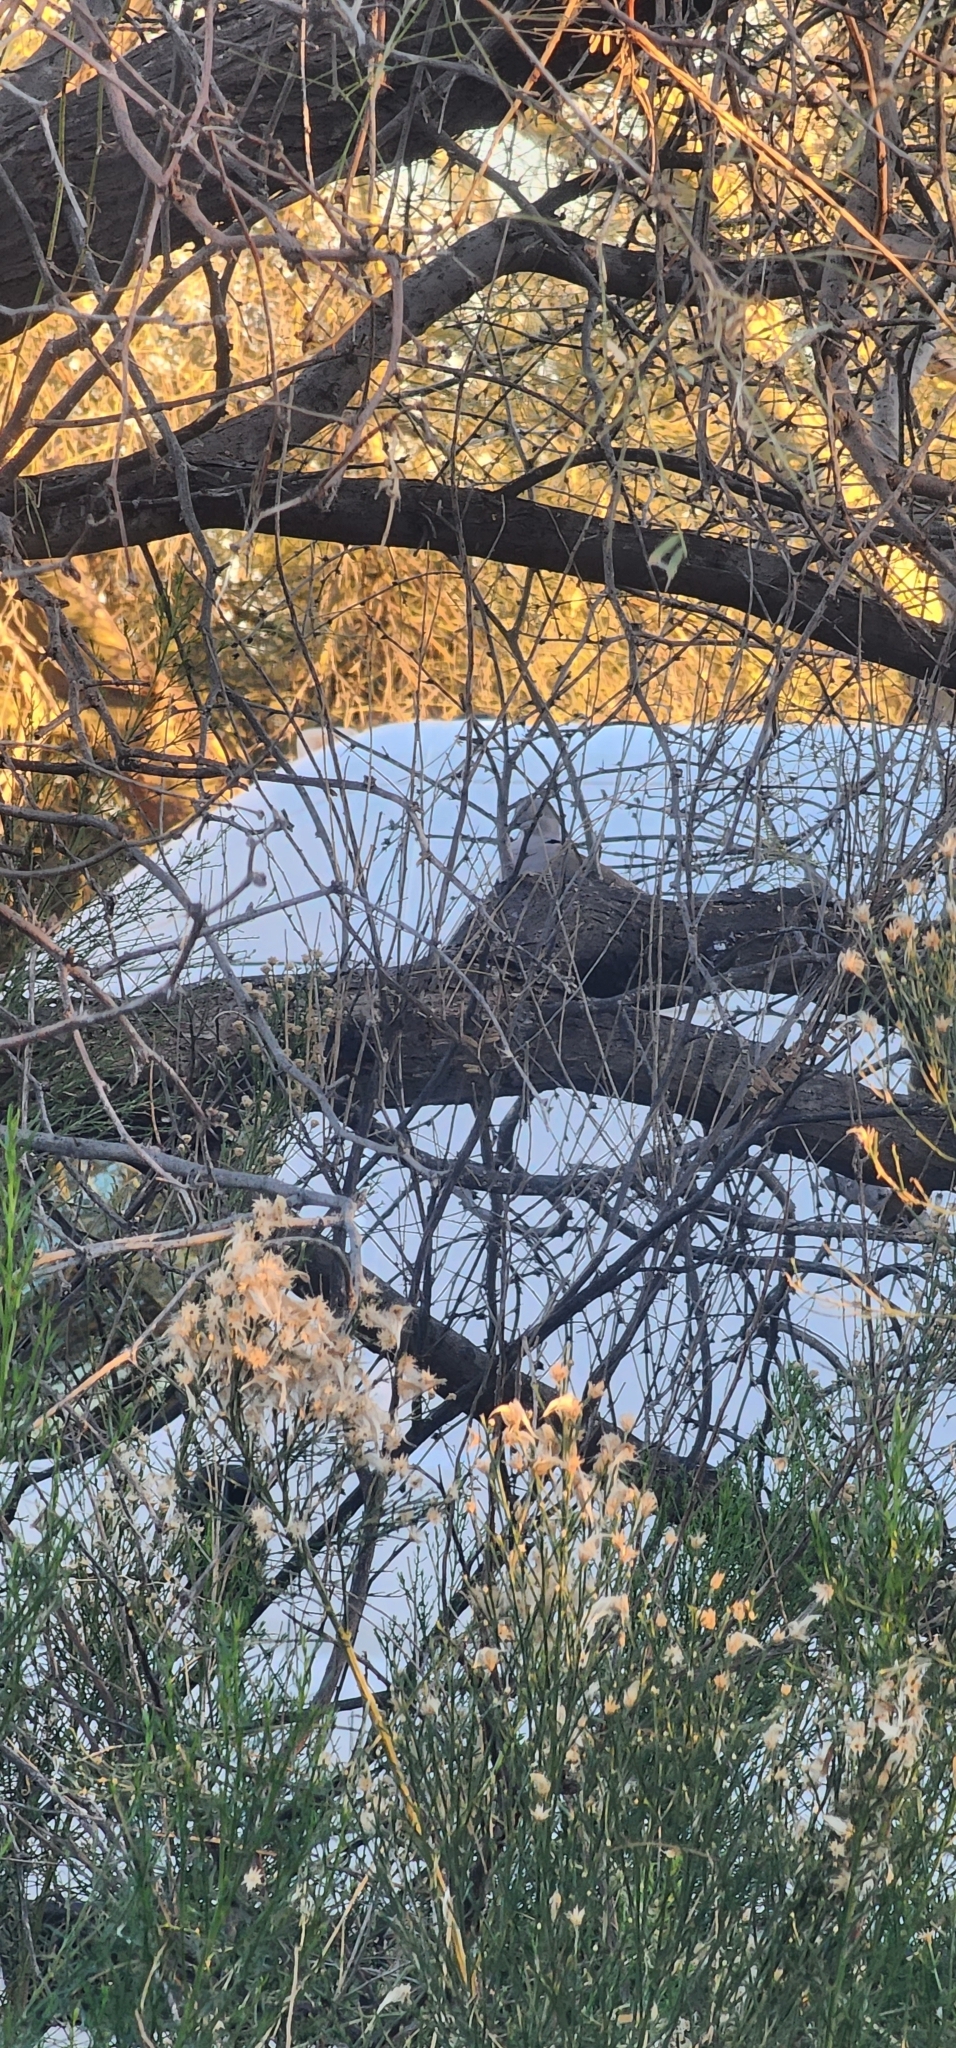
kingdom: Animalia
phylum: Chordata
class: Aves
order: Columbiformes
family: Columbidae
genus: Streptopelia
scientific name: Streptopelia decaocto
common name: Eurasian collared dove
